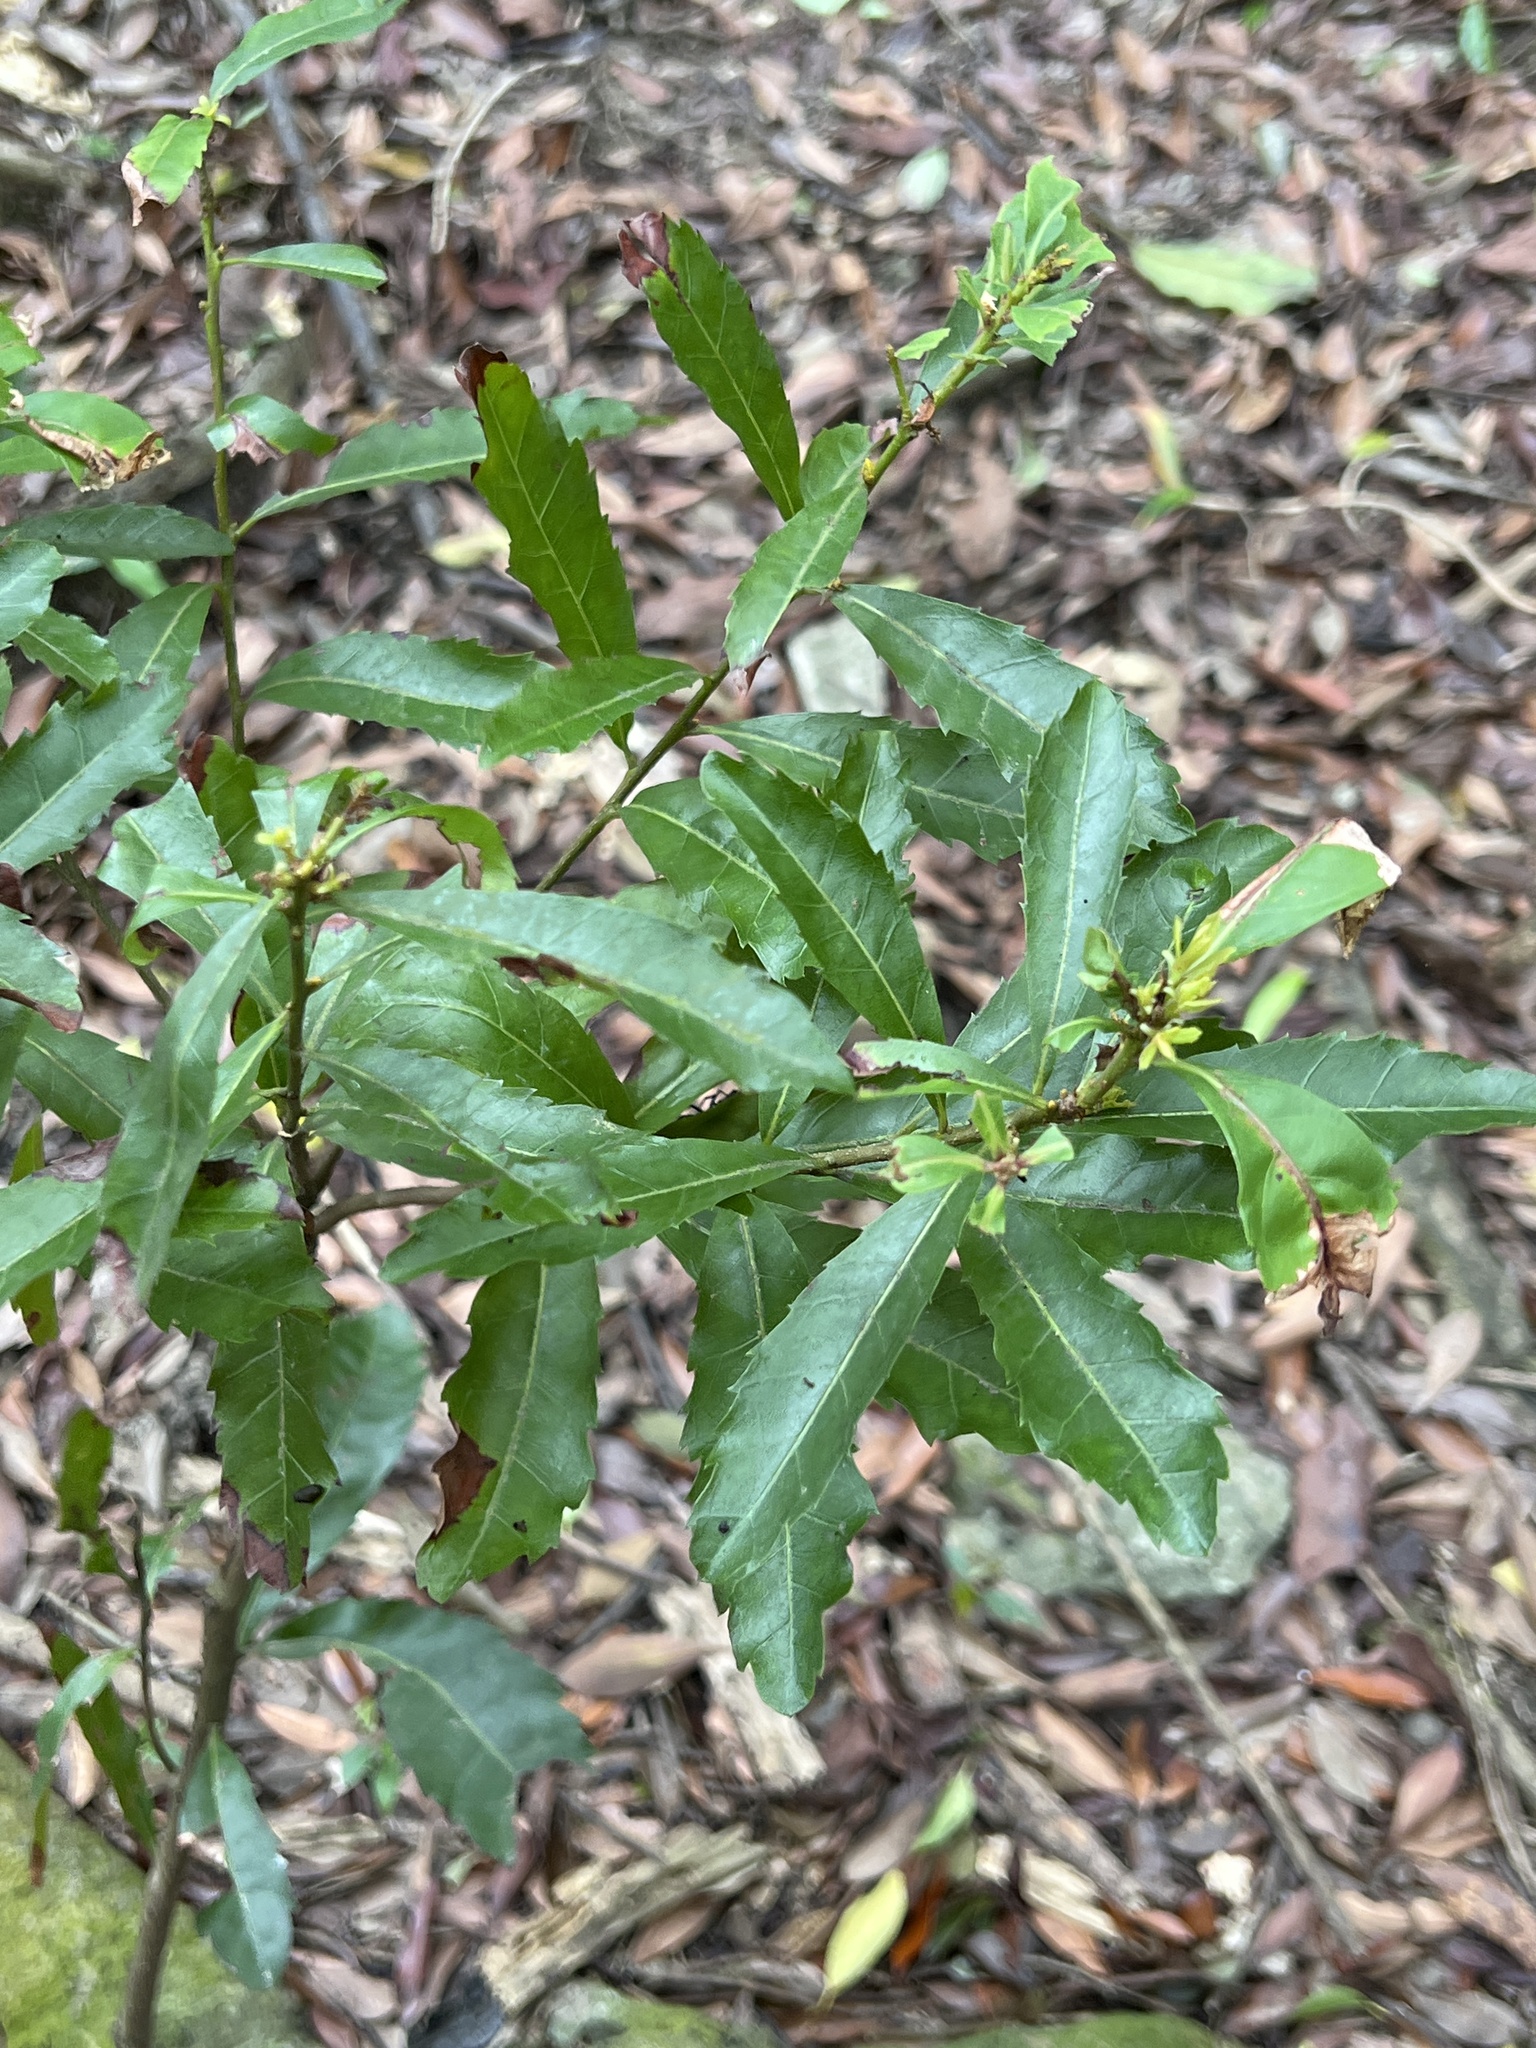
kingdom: Plantae
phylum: Tracheophyta
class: Magnoliopsida
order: Fagales
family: Myricaceae
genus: Morella
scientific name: Morella rubra
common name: Red bayberry
